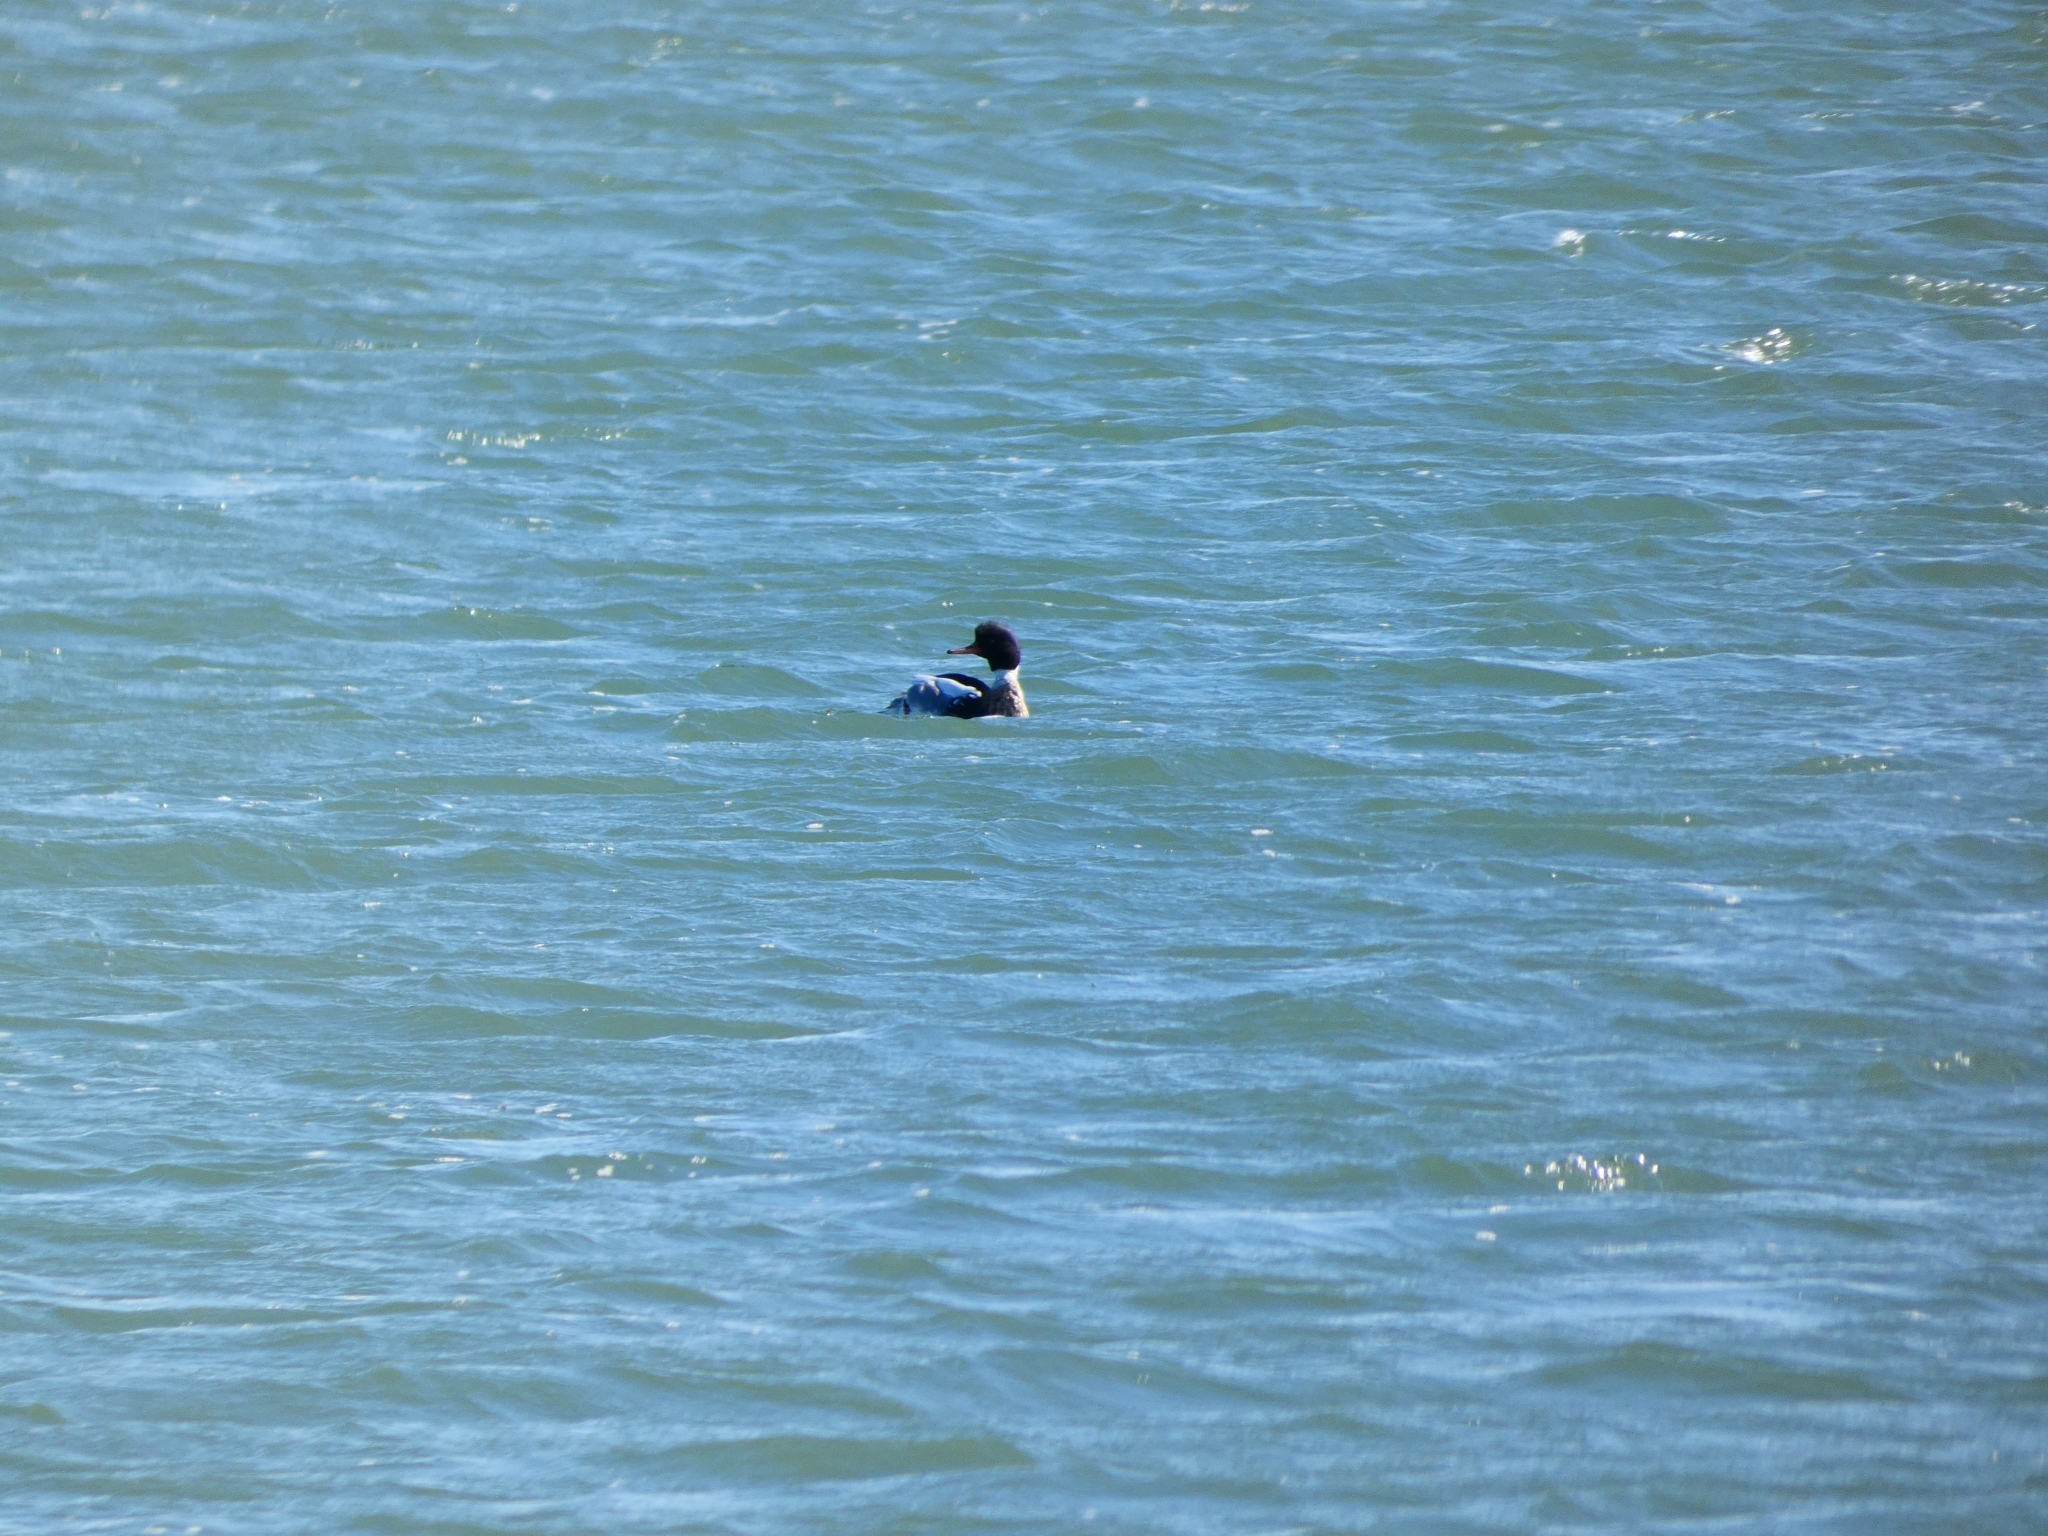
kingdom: Animalia
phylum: Chordata
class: Aves
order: Anseriformes
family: Anatidae
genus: Mergus
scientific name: Mergus serrator
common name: Red-breasted merganser
